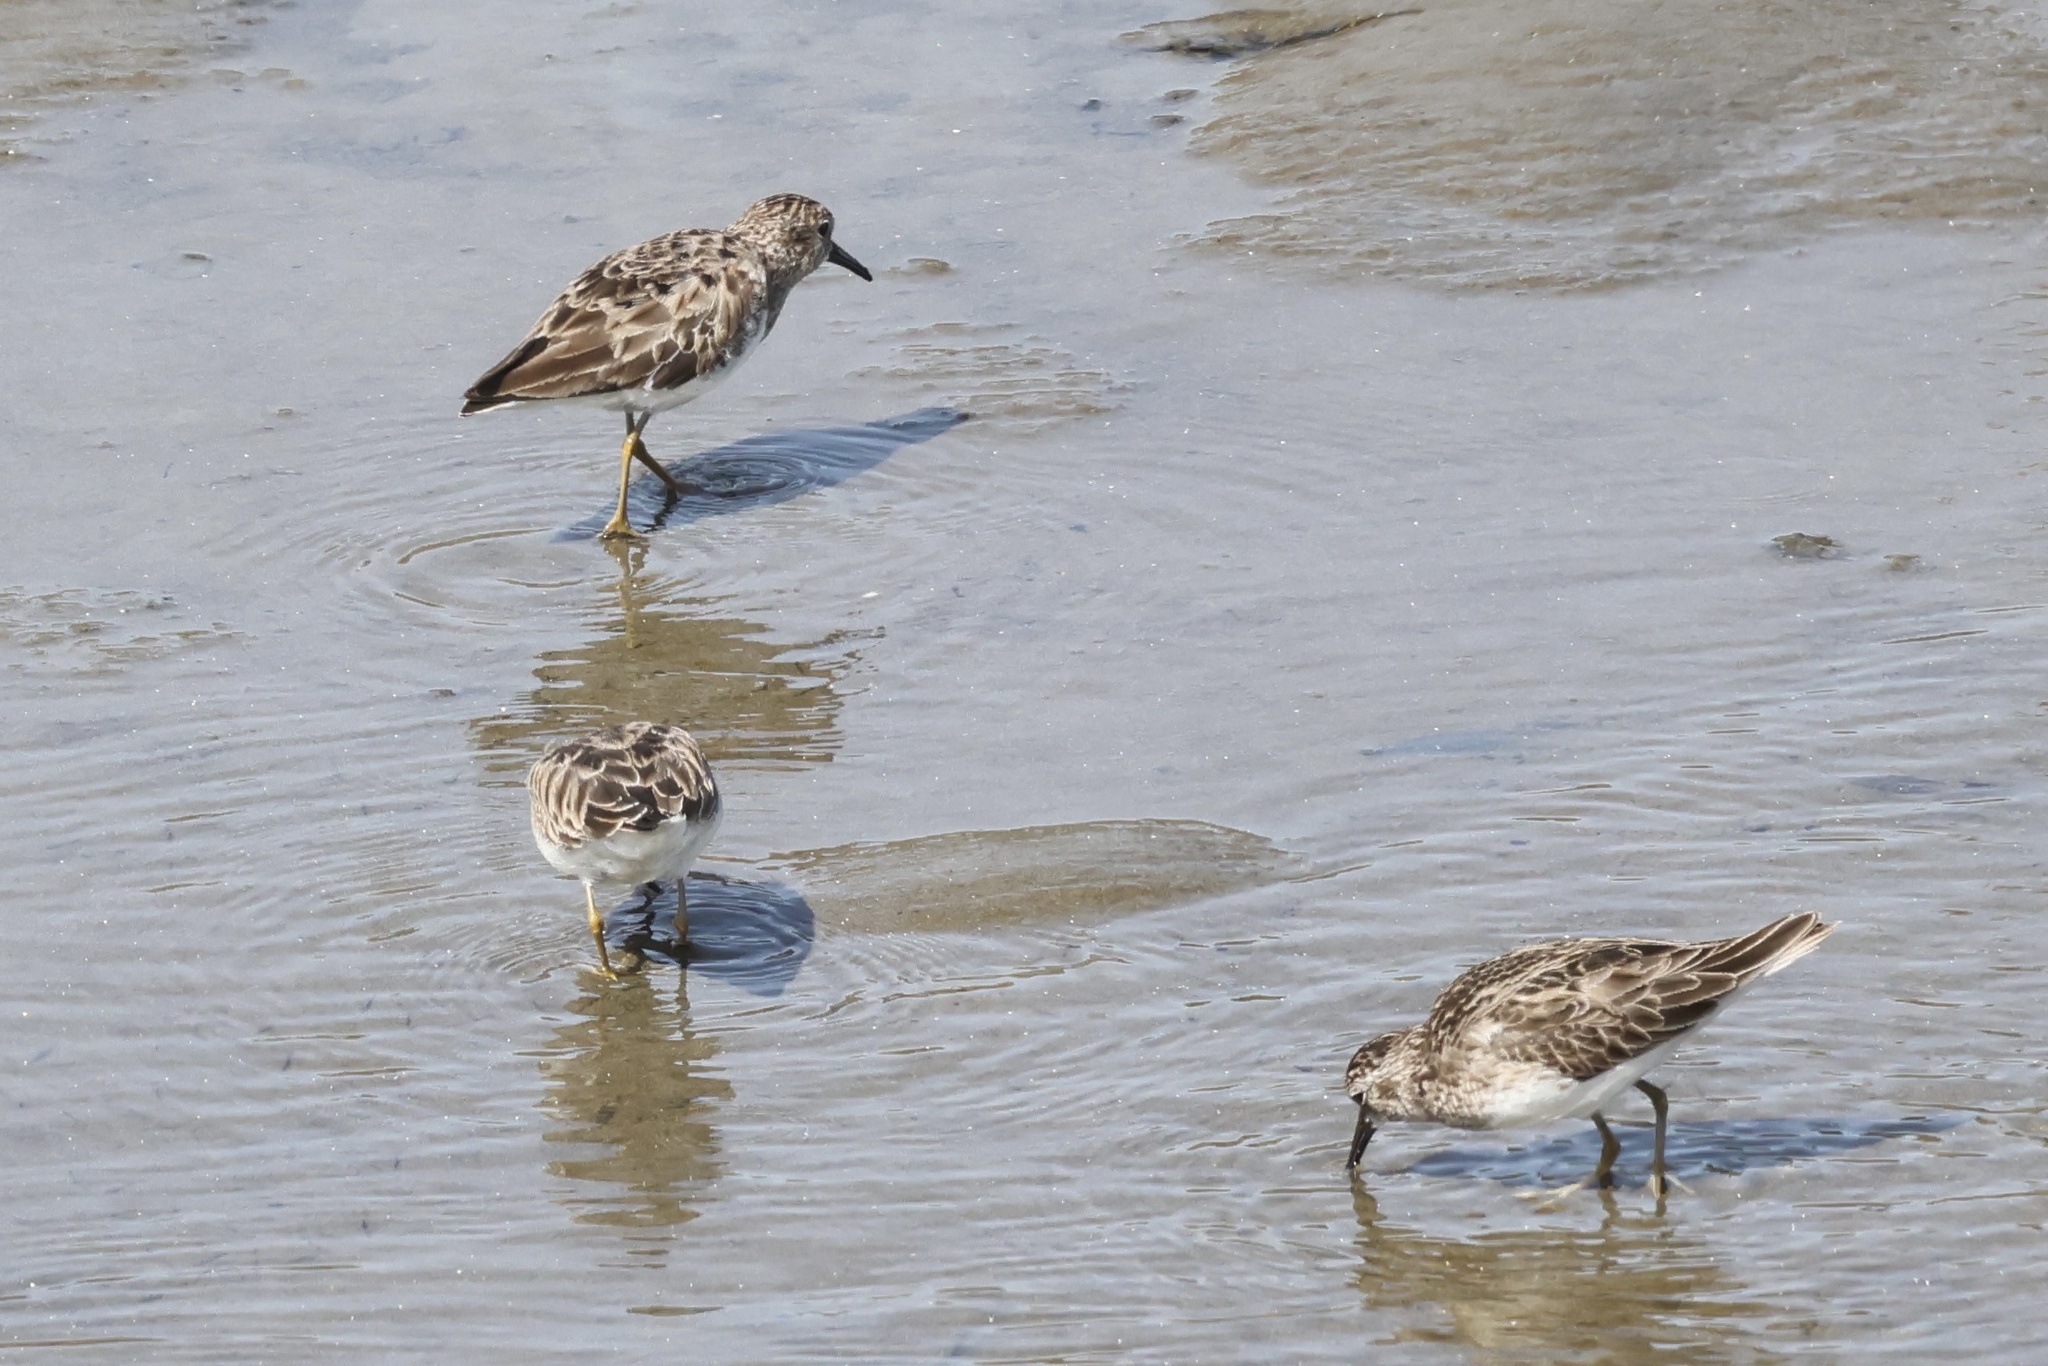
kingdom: Animalia
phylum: Chordata
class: Aves
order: Charadriiformes
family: Scolopacidae
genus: Calidris
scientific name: Calidris minutilla
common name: Least sandpiper
